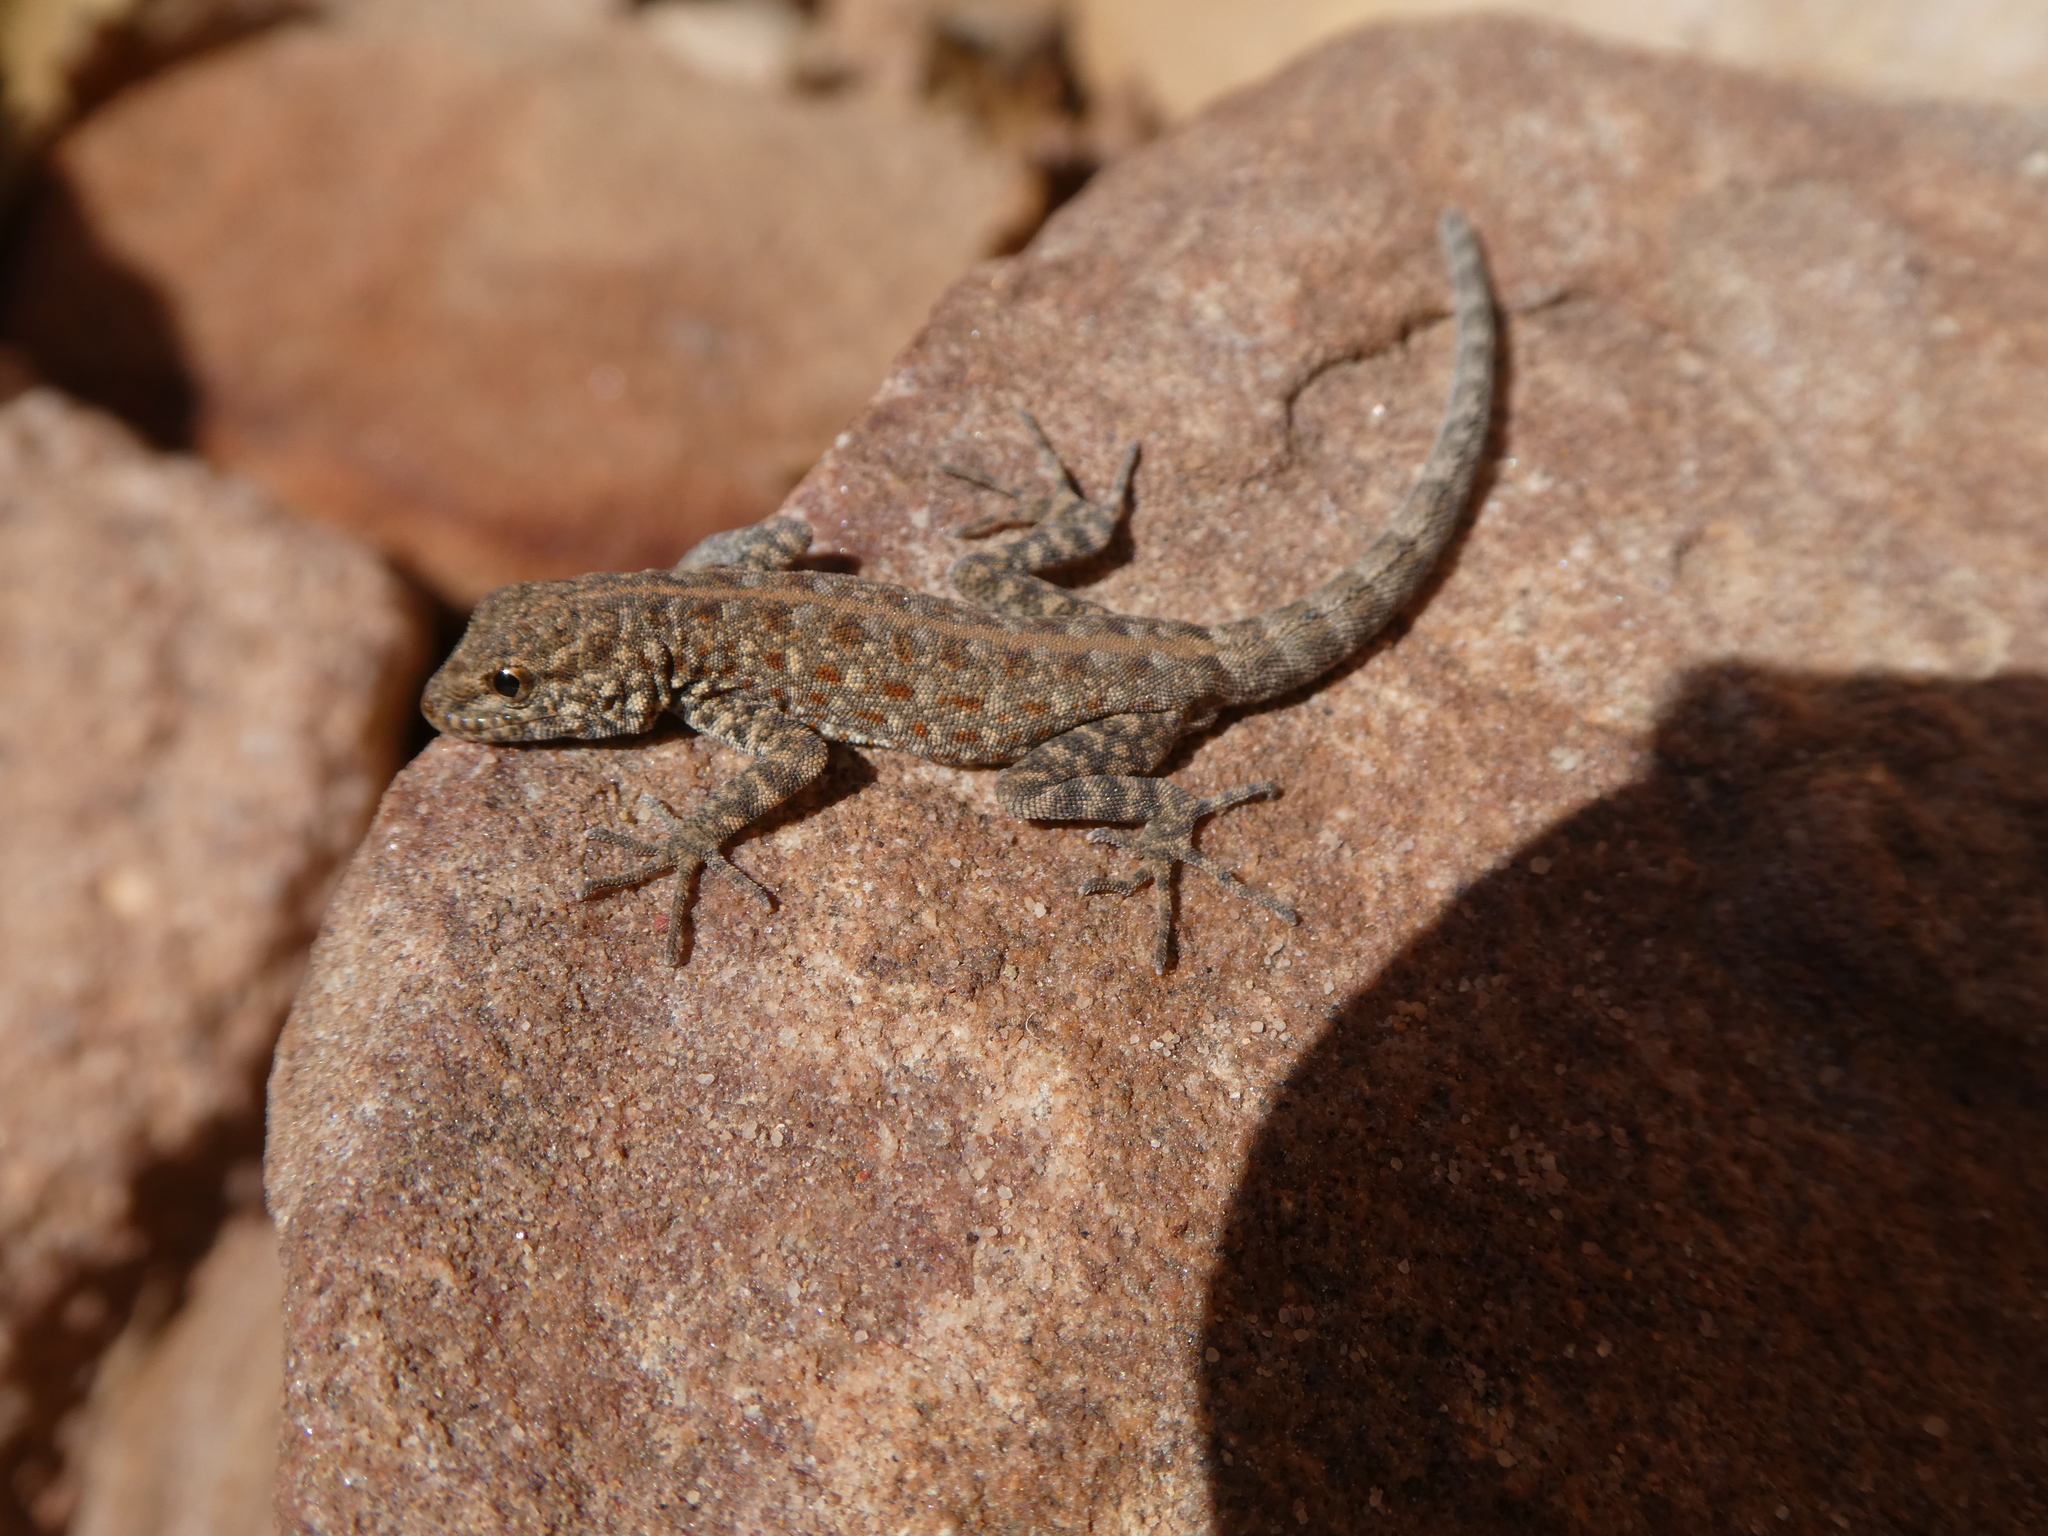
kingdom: Animalia
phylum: Chordata
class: Squamata
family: Sphaerodactylidae
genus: Pristurus
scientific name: Pristurus rupestris
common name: Blanford’s semaphore gecko
